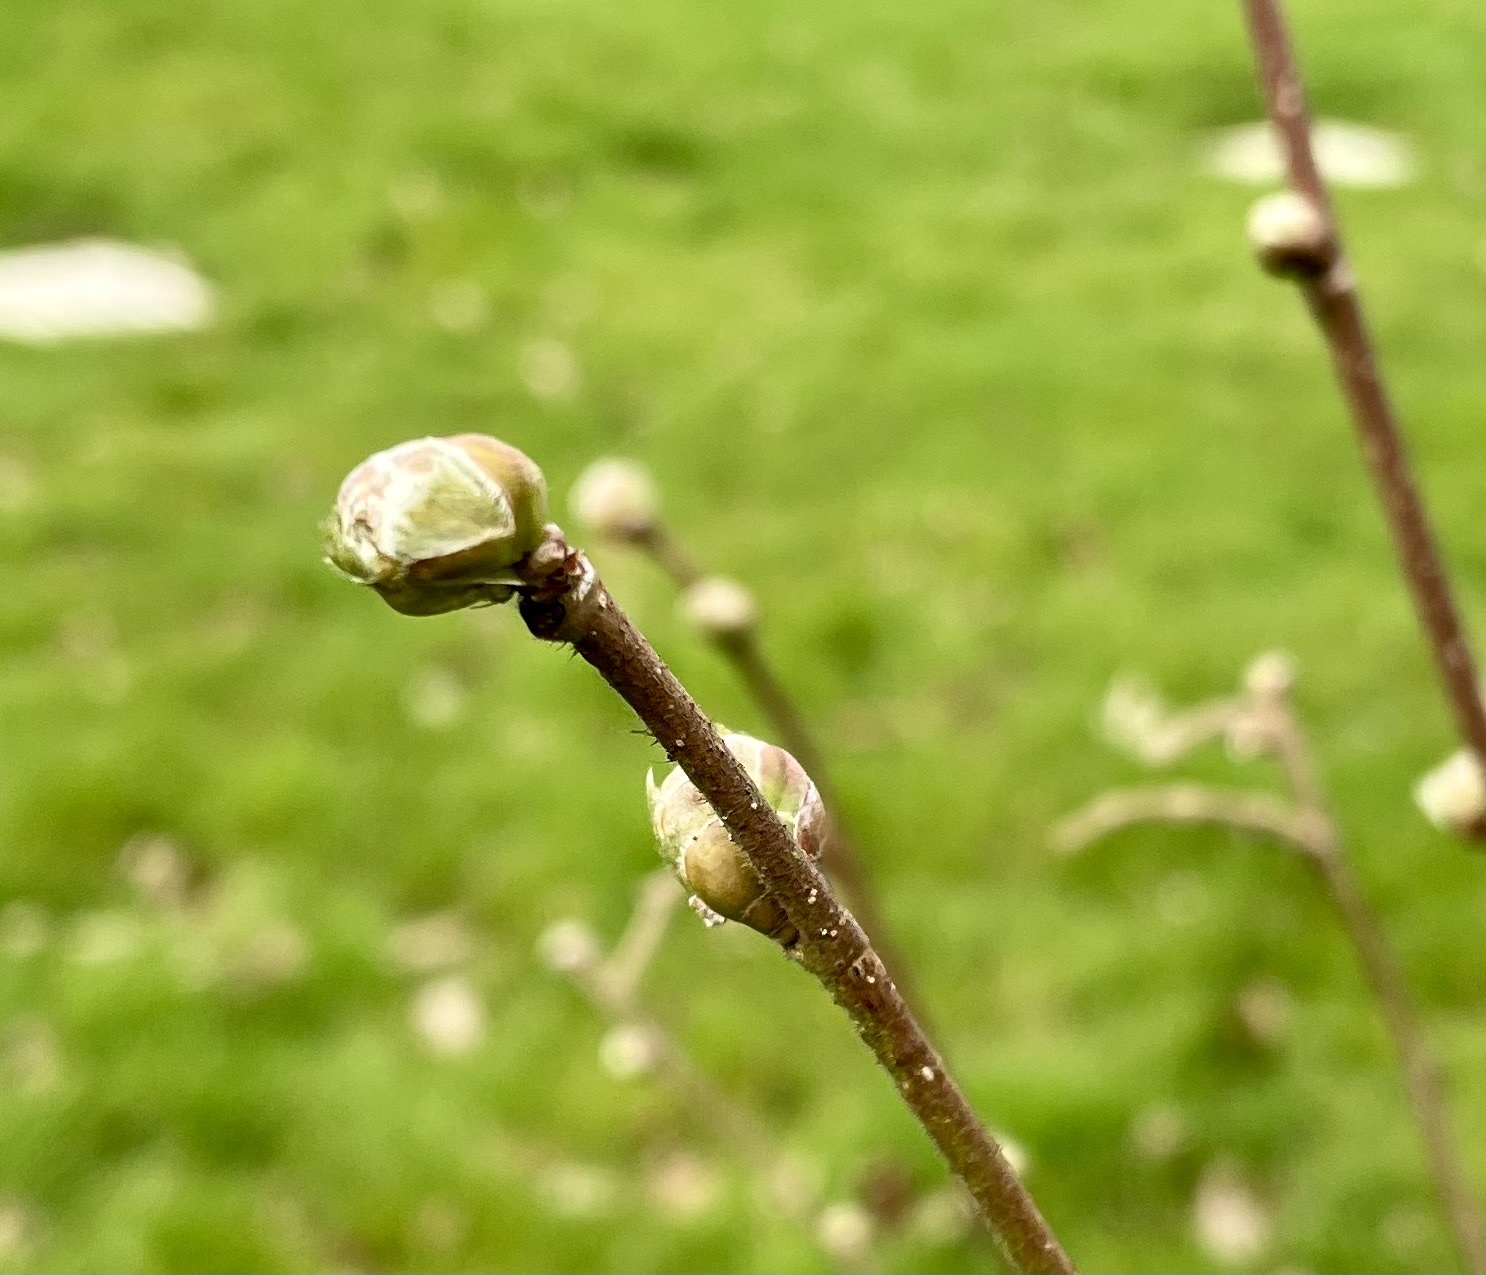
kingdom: Plantae
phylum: Tracheophyta
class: Magnoliopsida
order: Fagales
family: Betulaceae
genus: Corylus
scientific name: Corylus avellana
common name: European hazel
